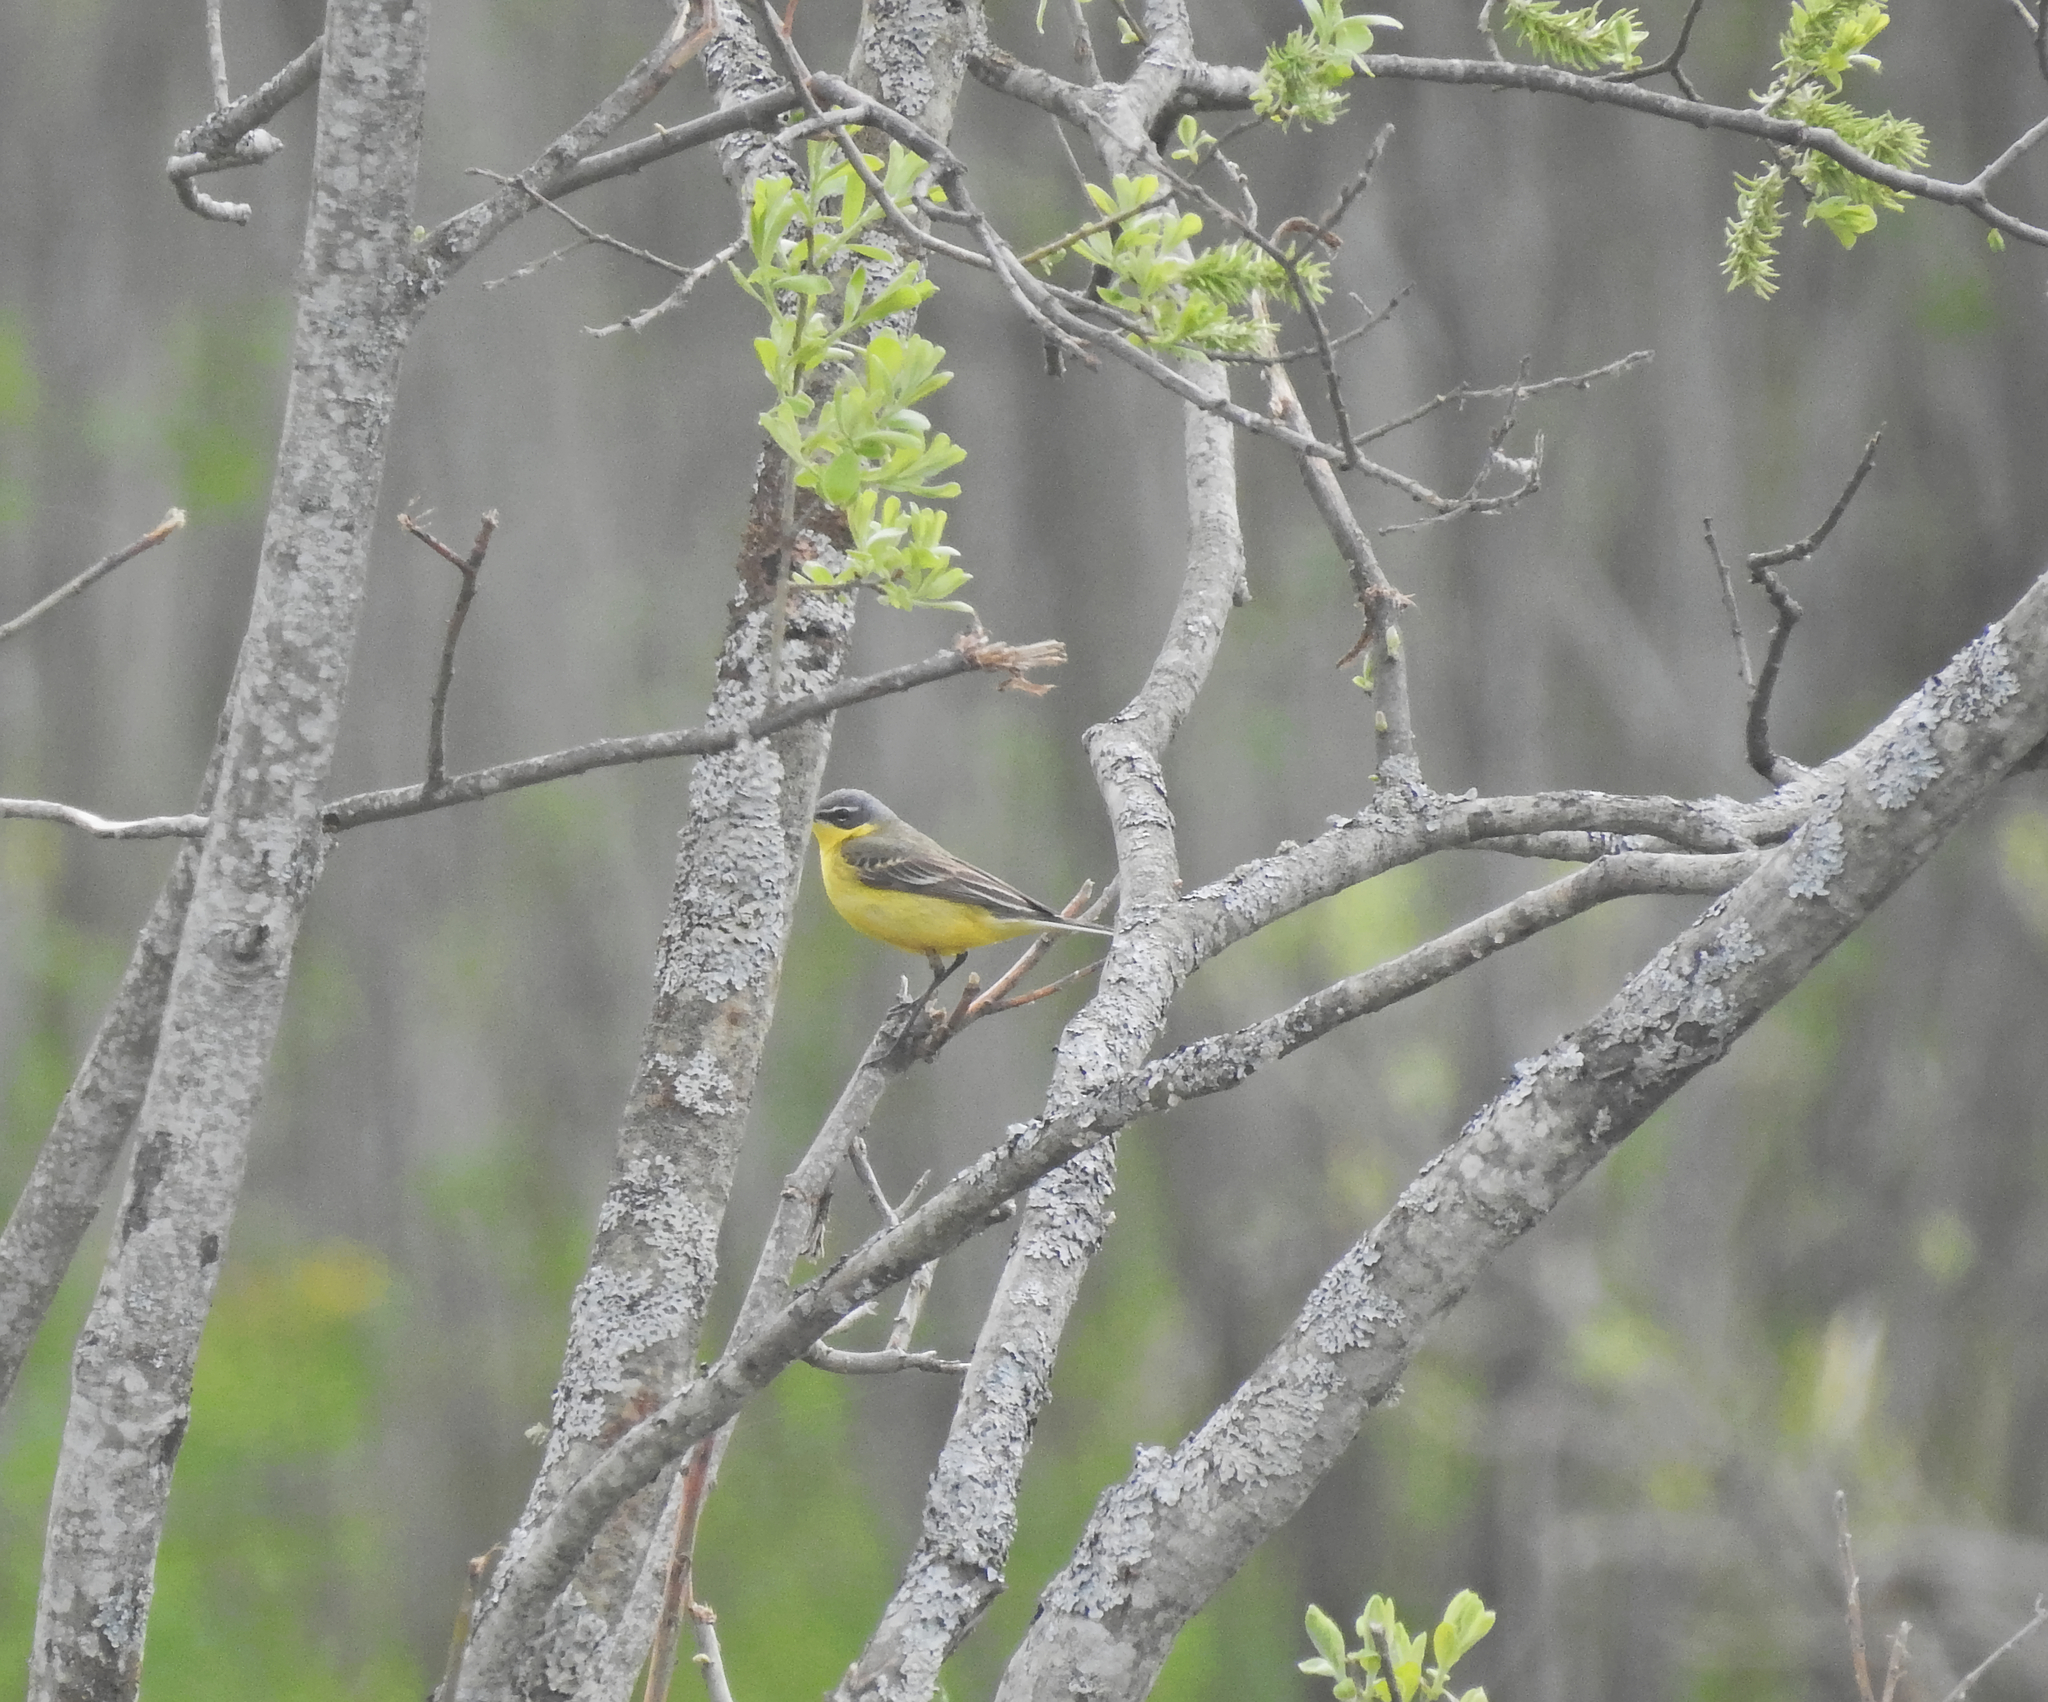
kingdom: Animalia
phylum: Chordata
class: Aves
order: Passeriformes
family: Motacillidae
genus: Motacilla
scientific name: Motacilla flava
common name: Western yellow wagtail
